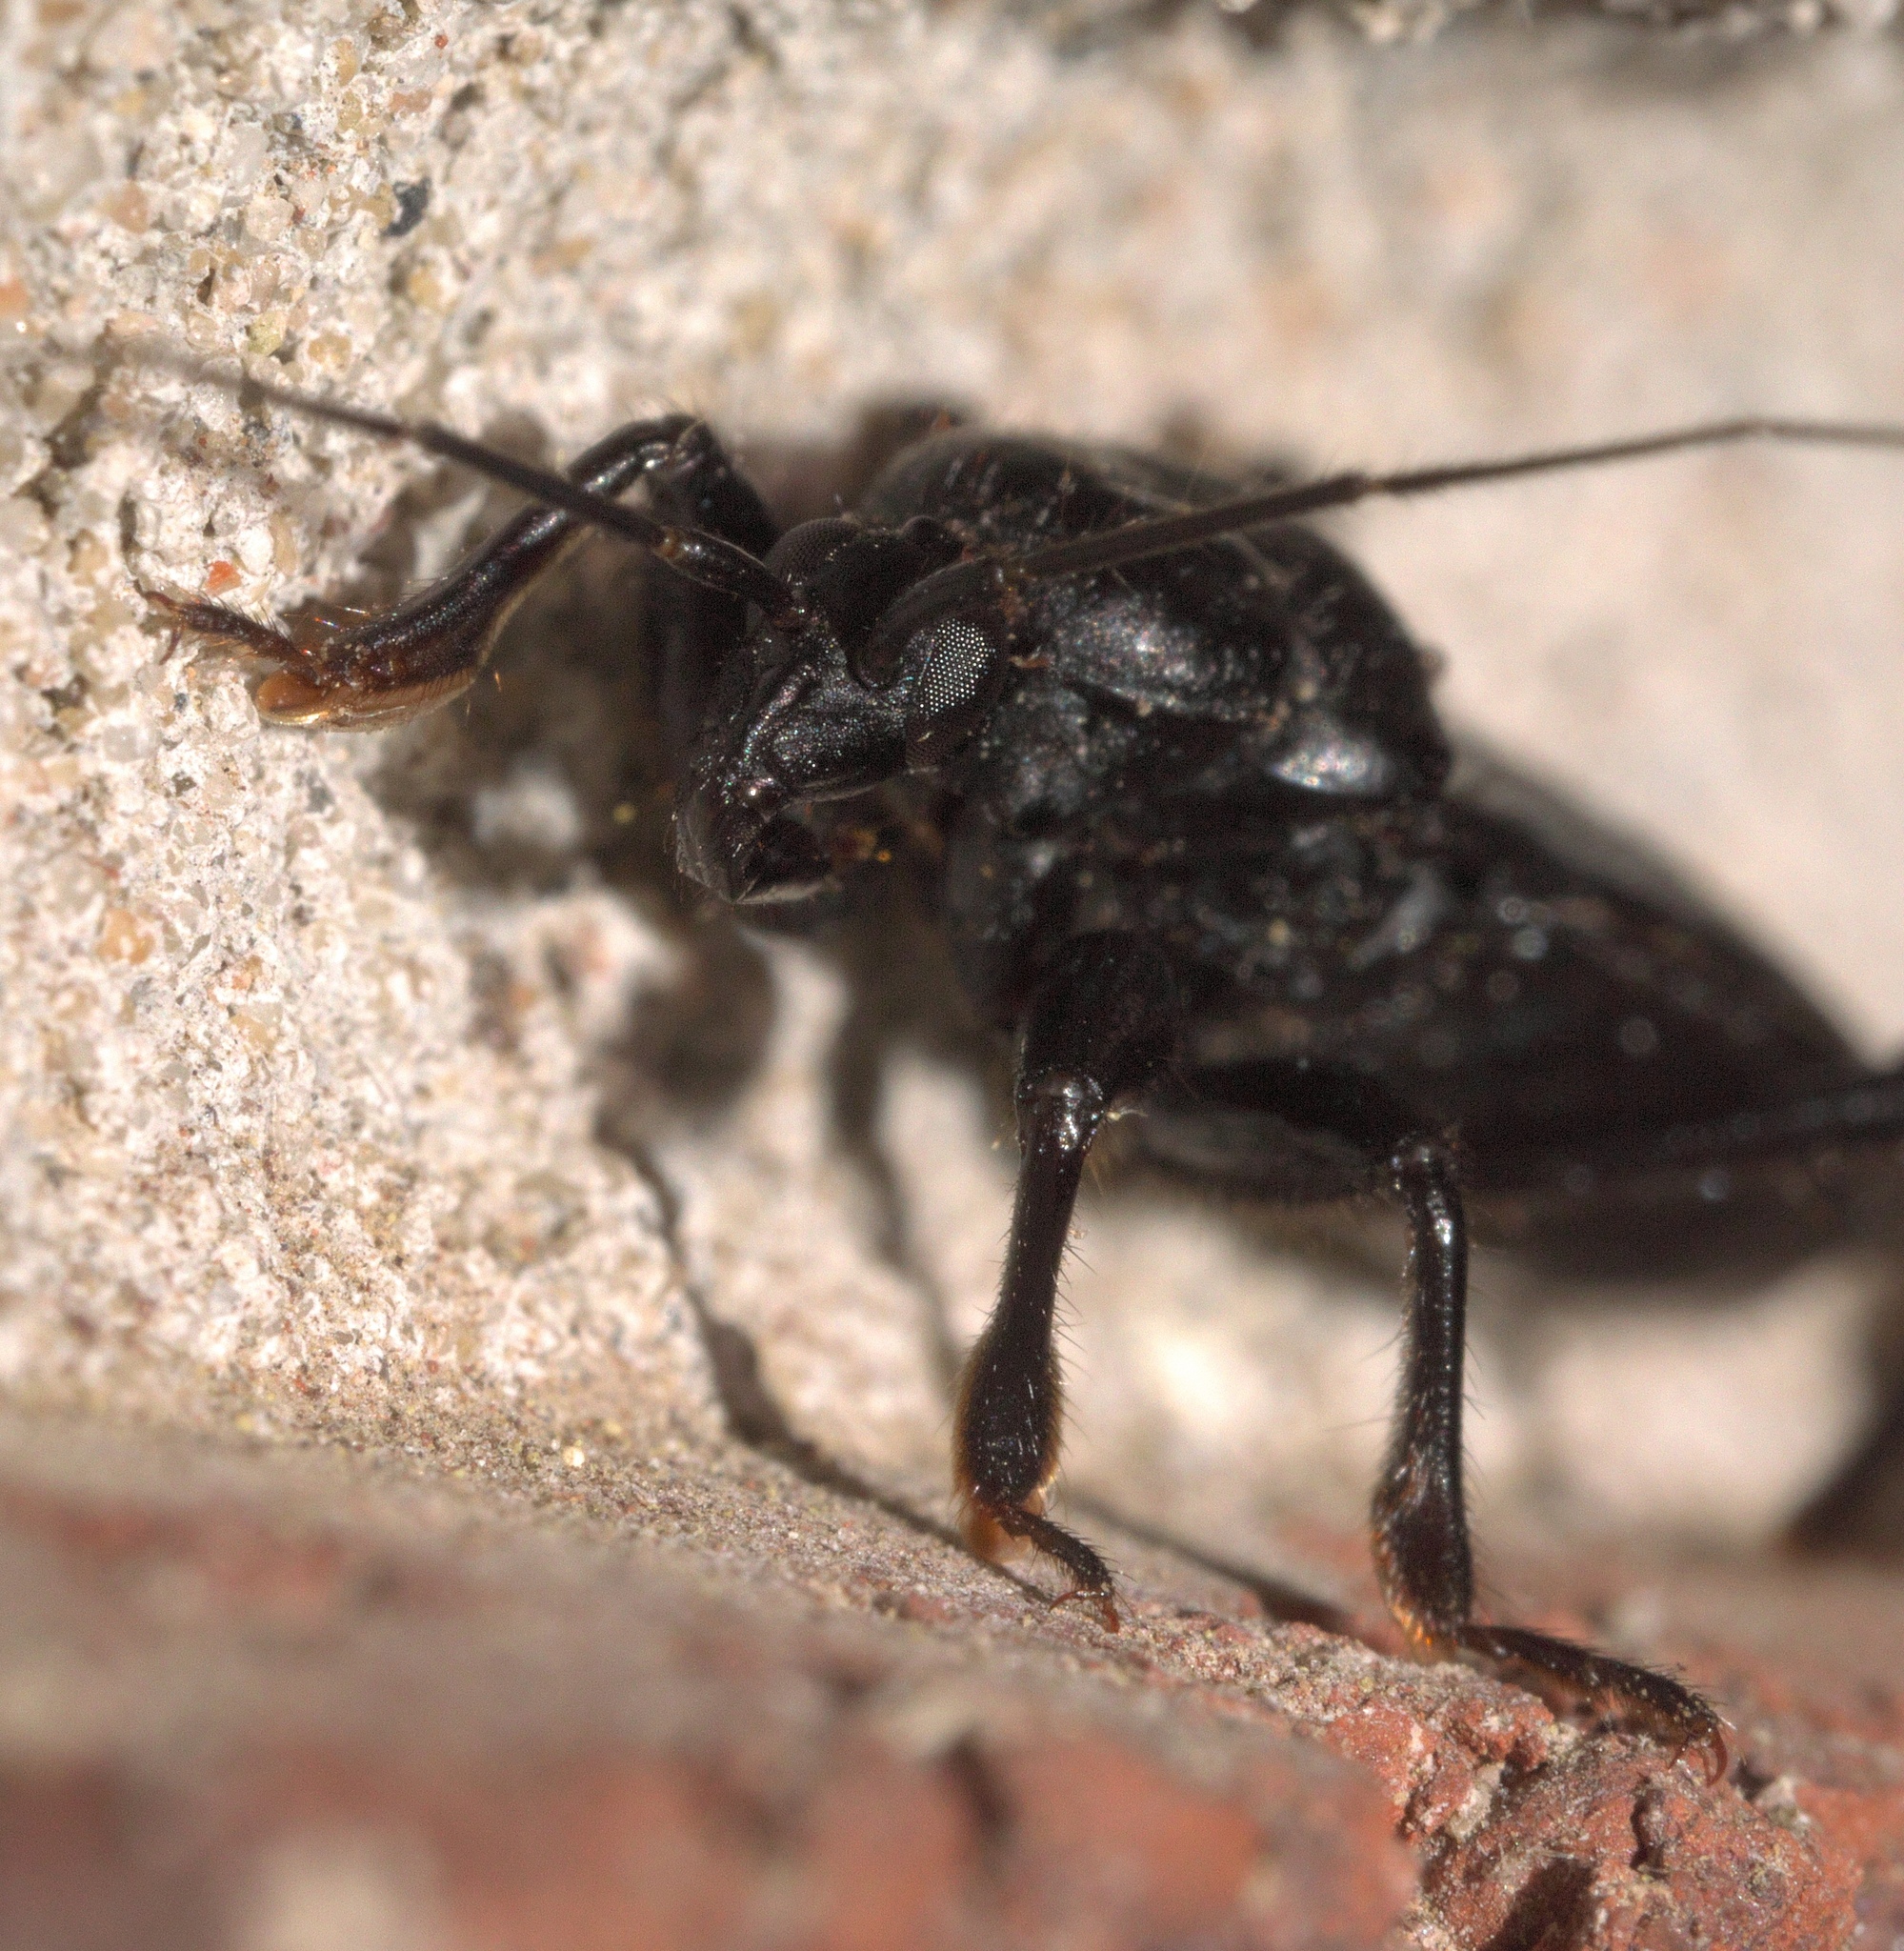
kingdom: Animalia
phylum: Arthropoda
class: Insecta
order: Hemiptera
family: Reduviidae
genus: Melanolestes
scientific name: Melanolestes picipes
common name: Assassin bug
